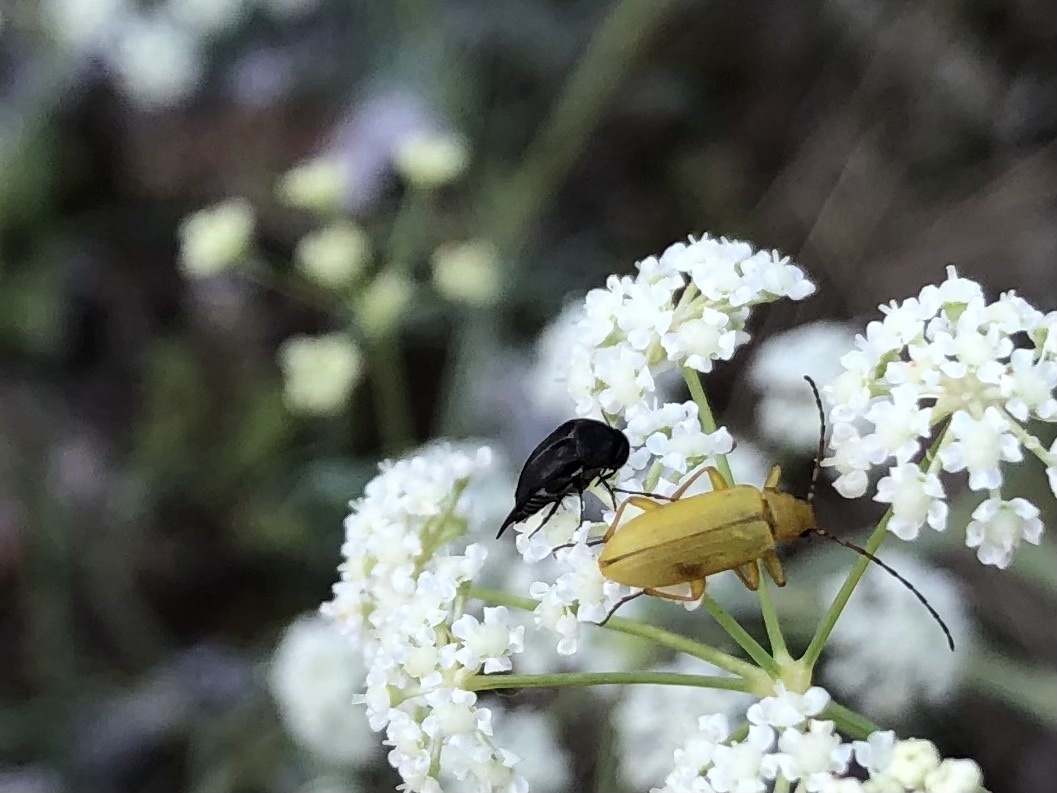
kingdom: Animalia
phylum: Arthropoda
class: Insecta
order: Coleoptera
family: Tenebrionidae
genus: Cteniopus
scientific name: Cteniopus sulphureus
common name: Sulphur beetle
